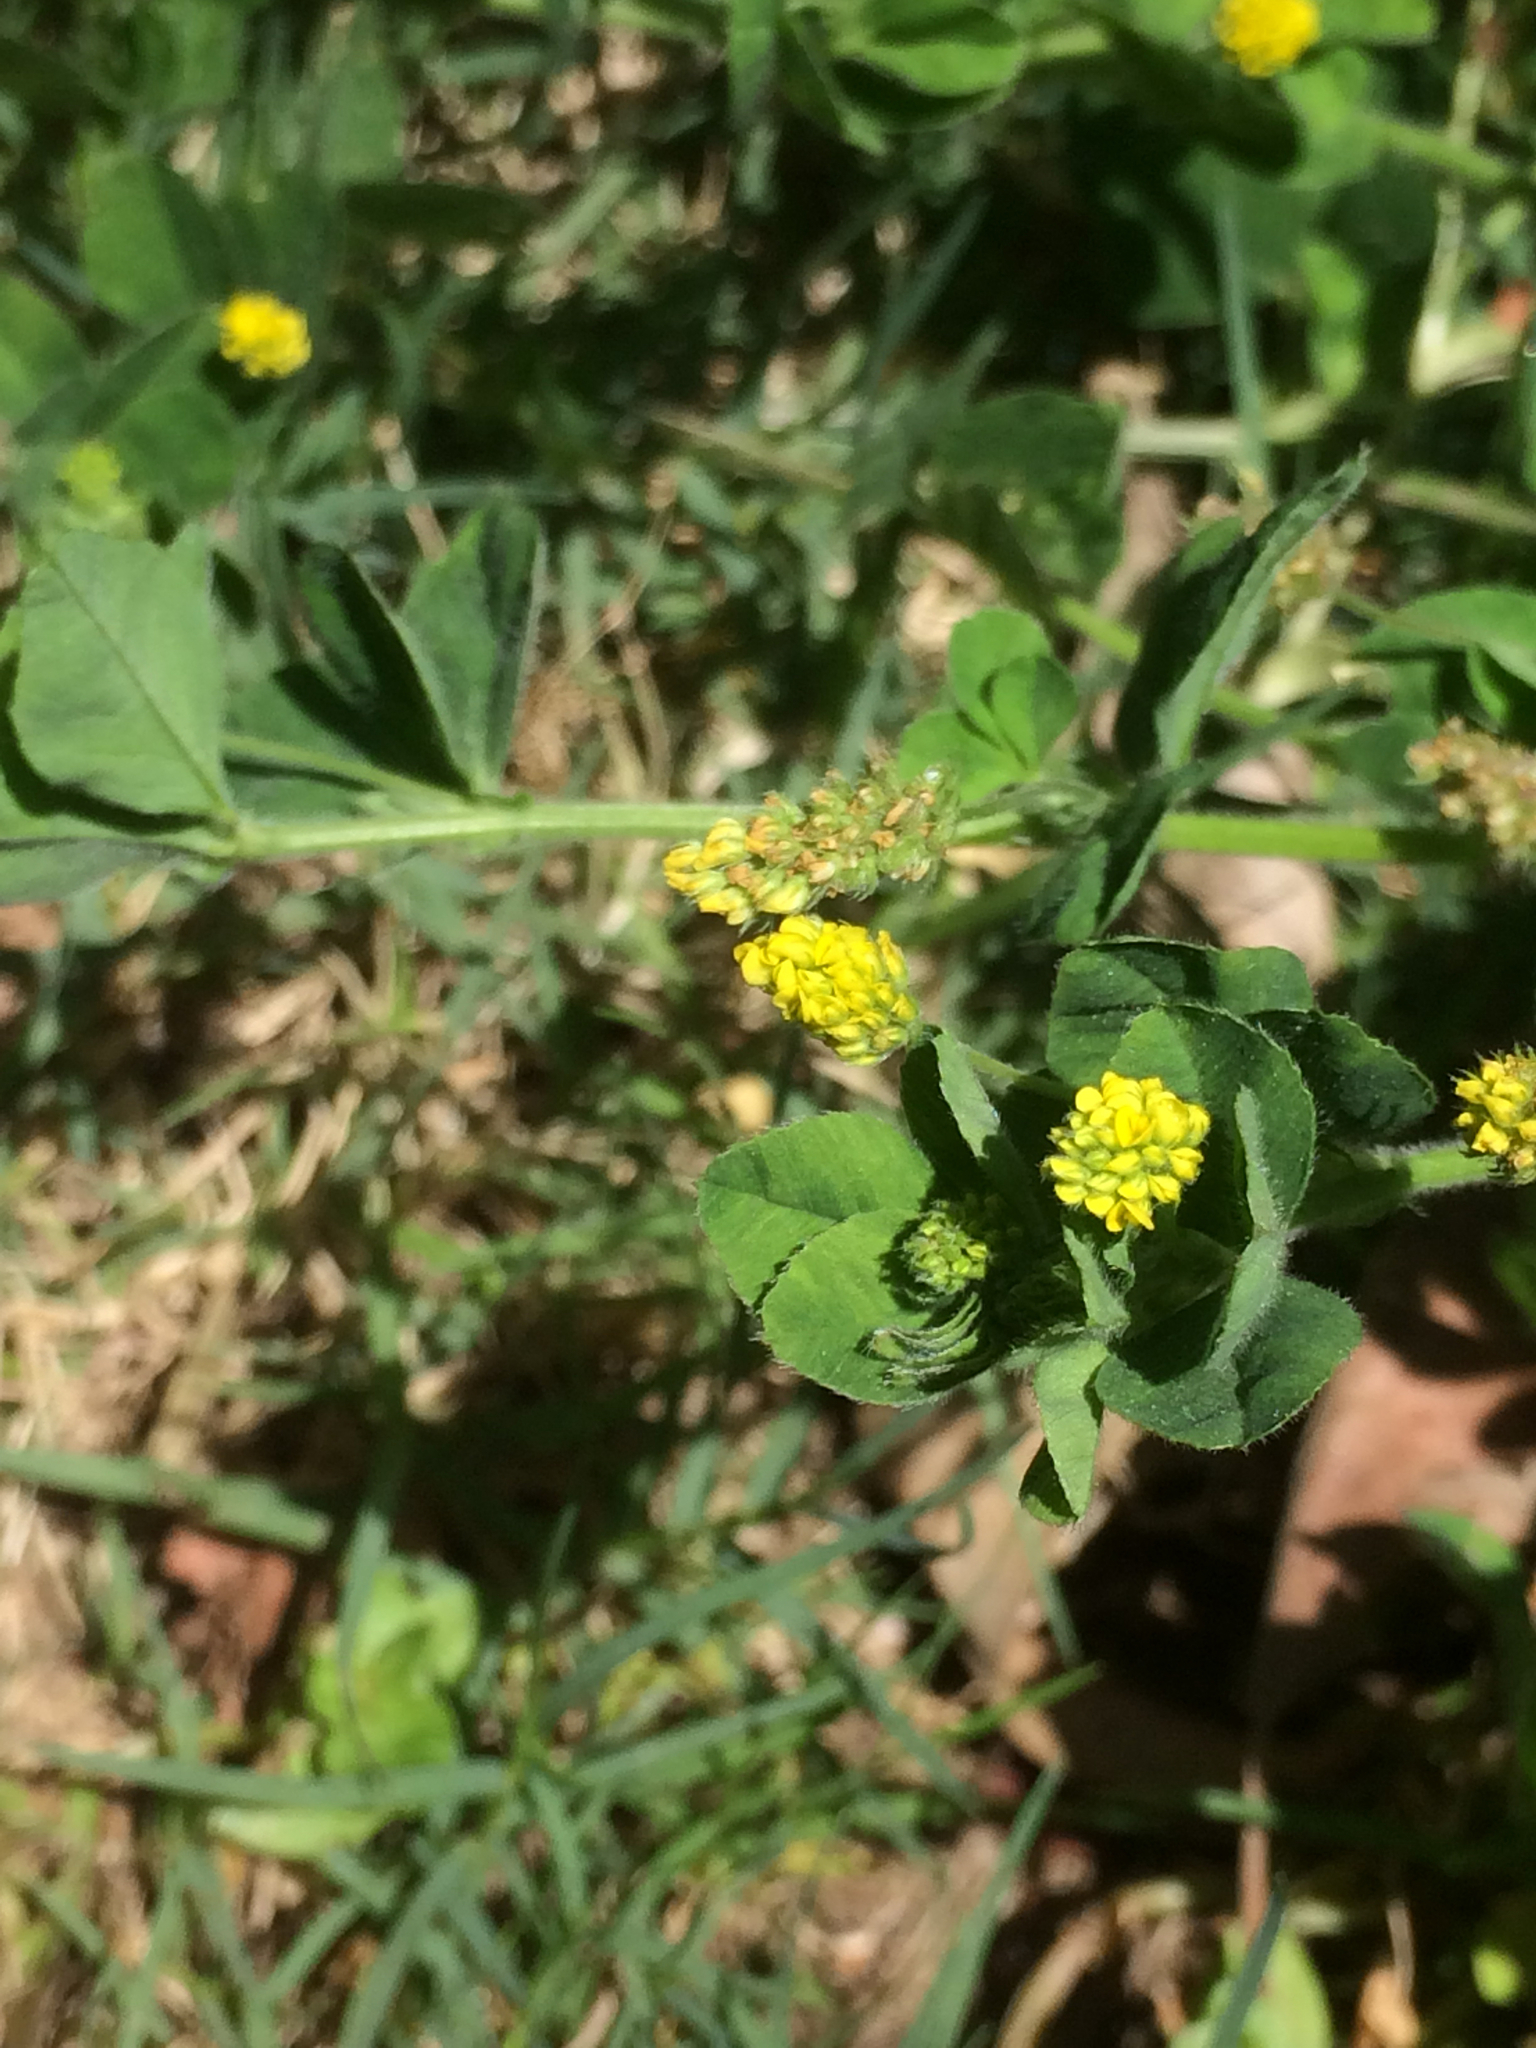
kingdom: Plantae
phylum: Tracheophyta
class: Magnoliopsida
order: Fabales
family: Fabaceae
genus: Medicago
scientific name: Medicago lupulina
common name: Black medick
